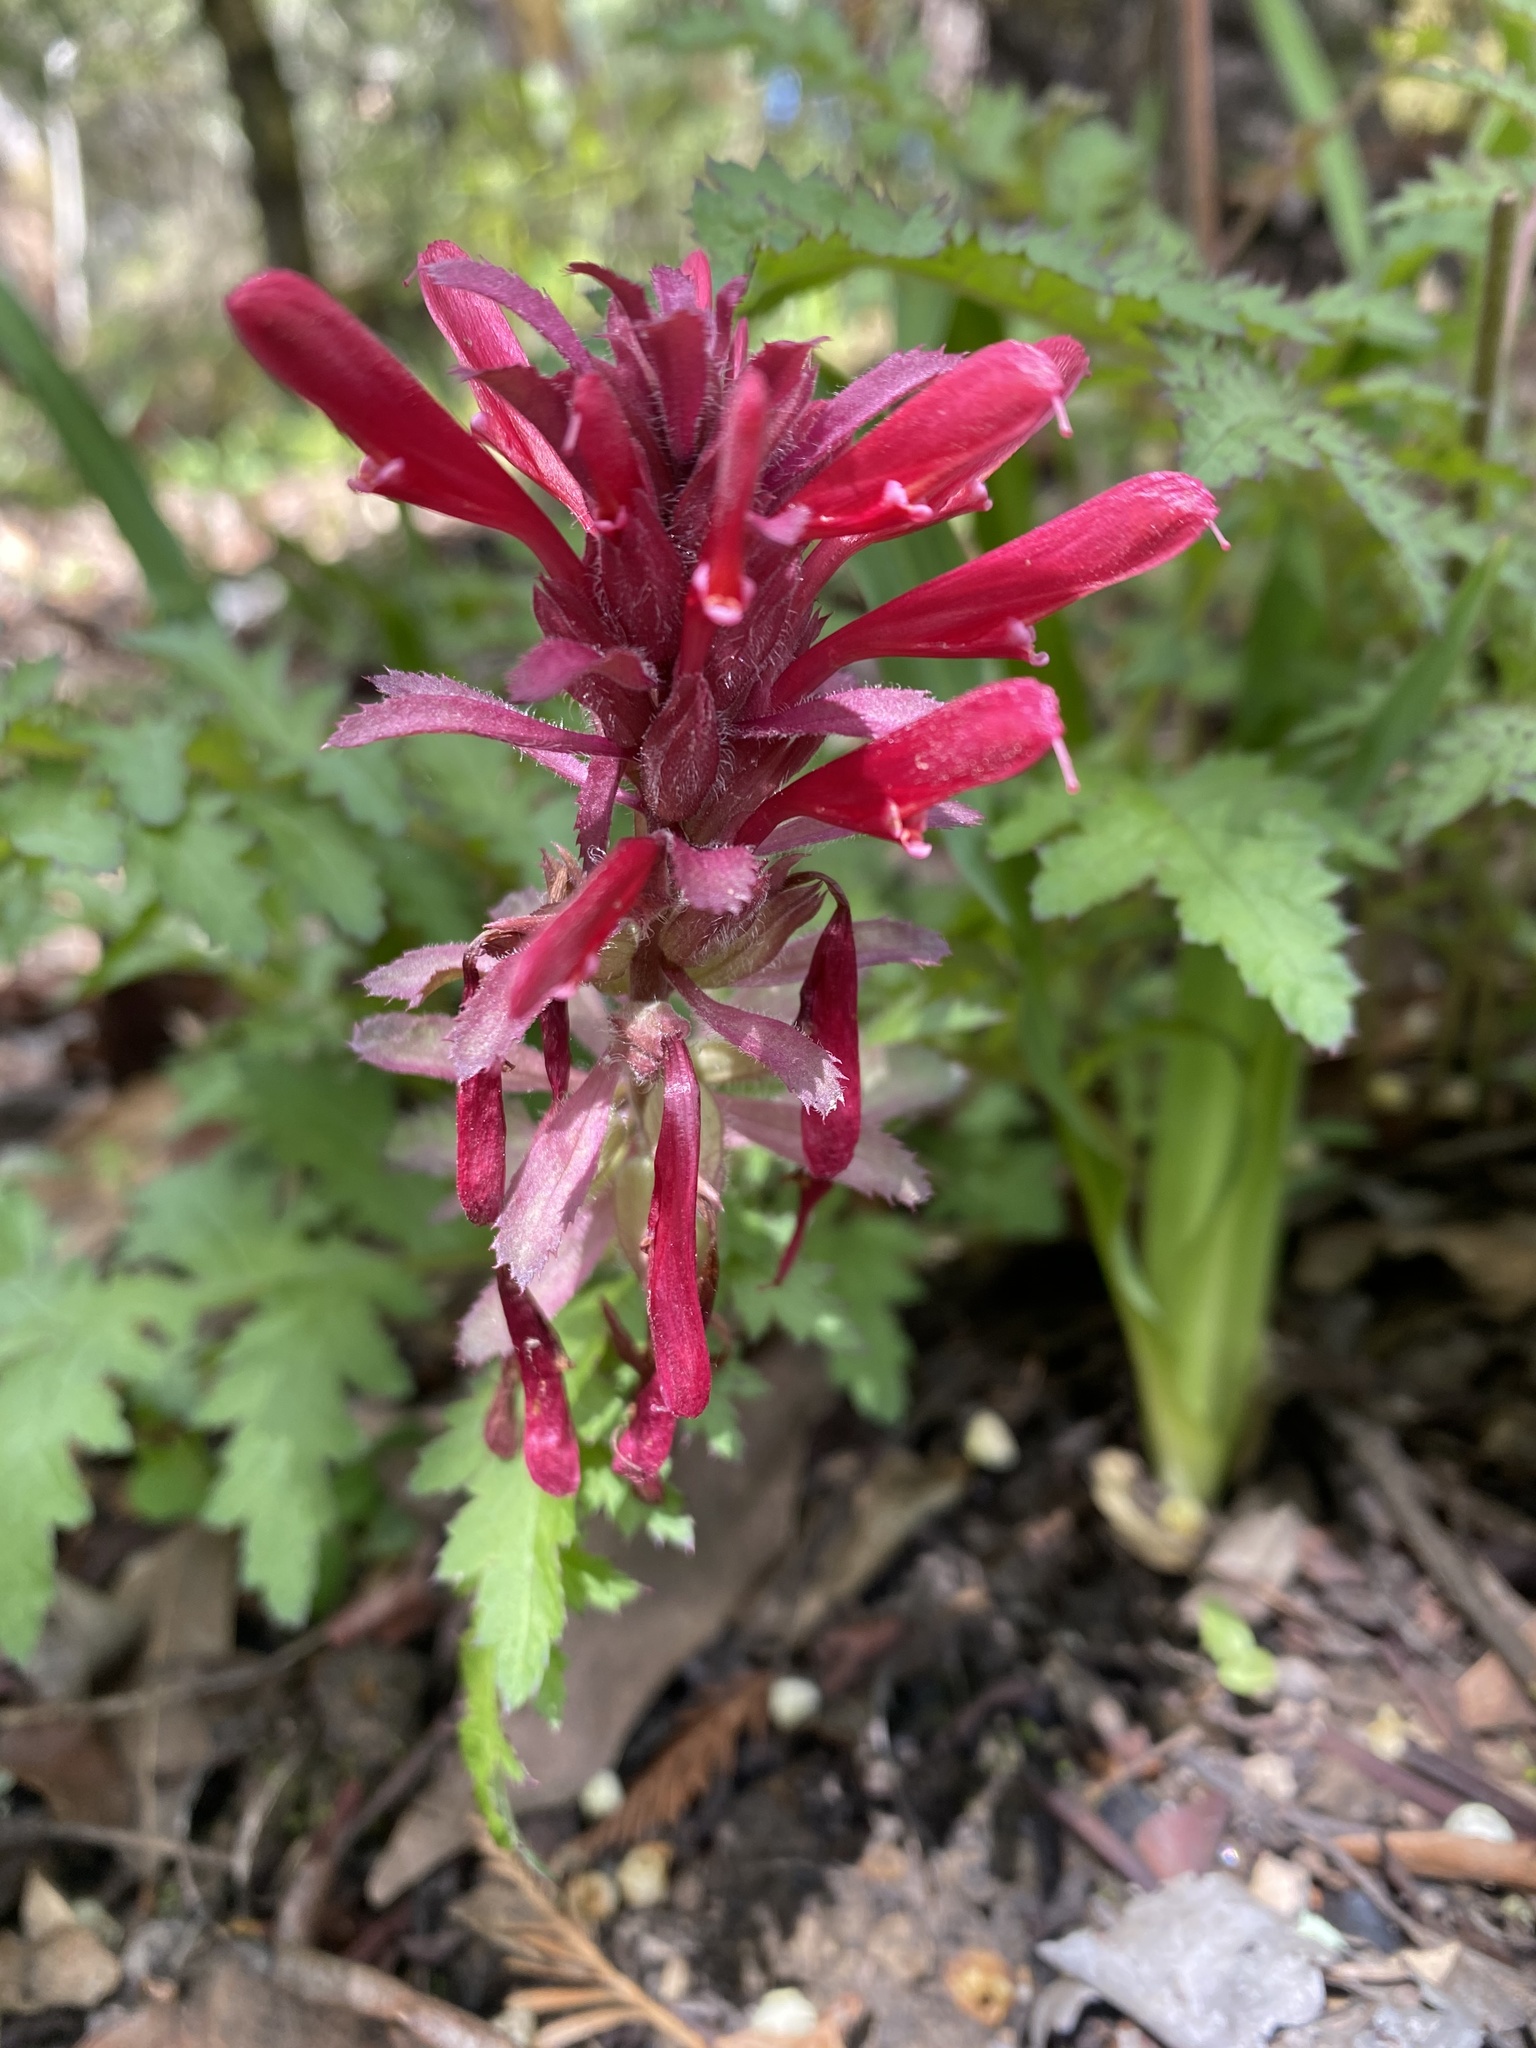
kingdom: Plantae
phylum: Tracheophyta
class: Magnoliopsida
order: Lamiales
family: Orobanchaceae
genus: Pedicularis
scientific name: Pedicularis densiflora
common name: Indian warrior
